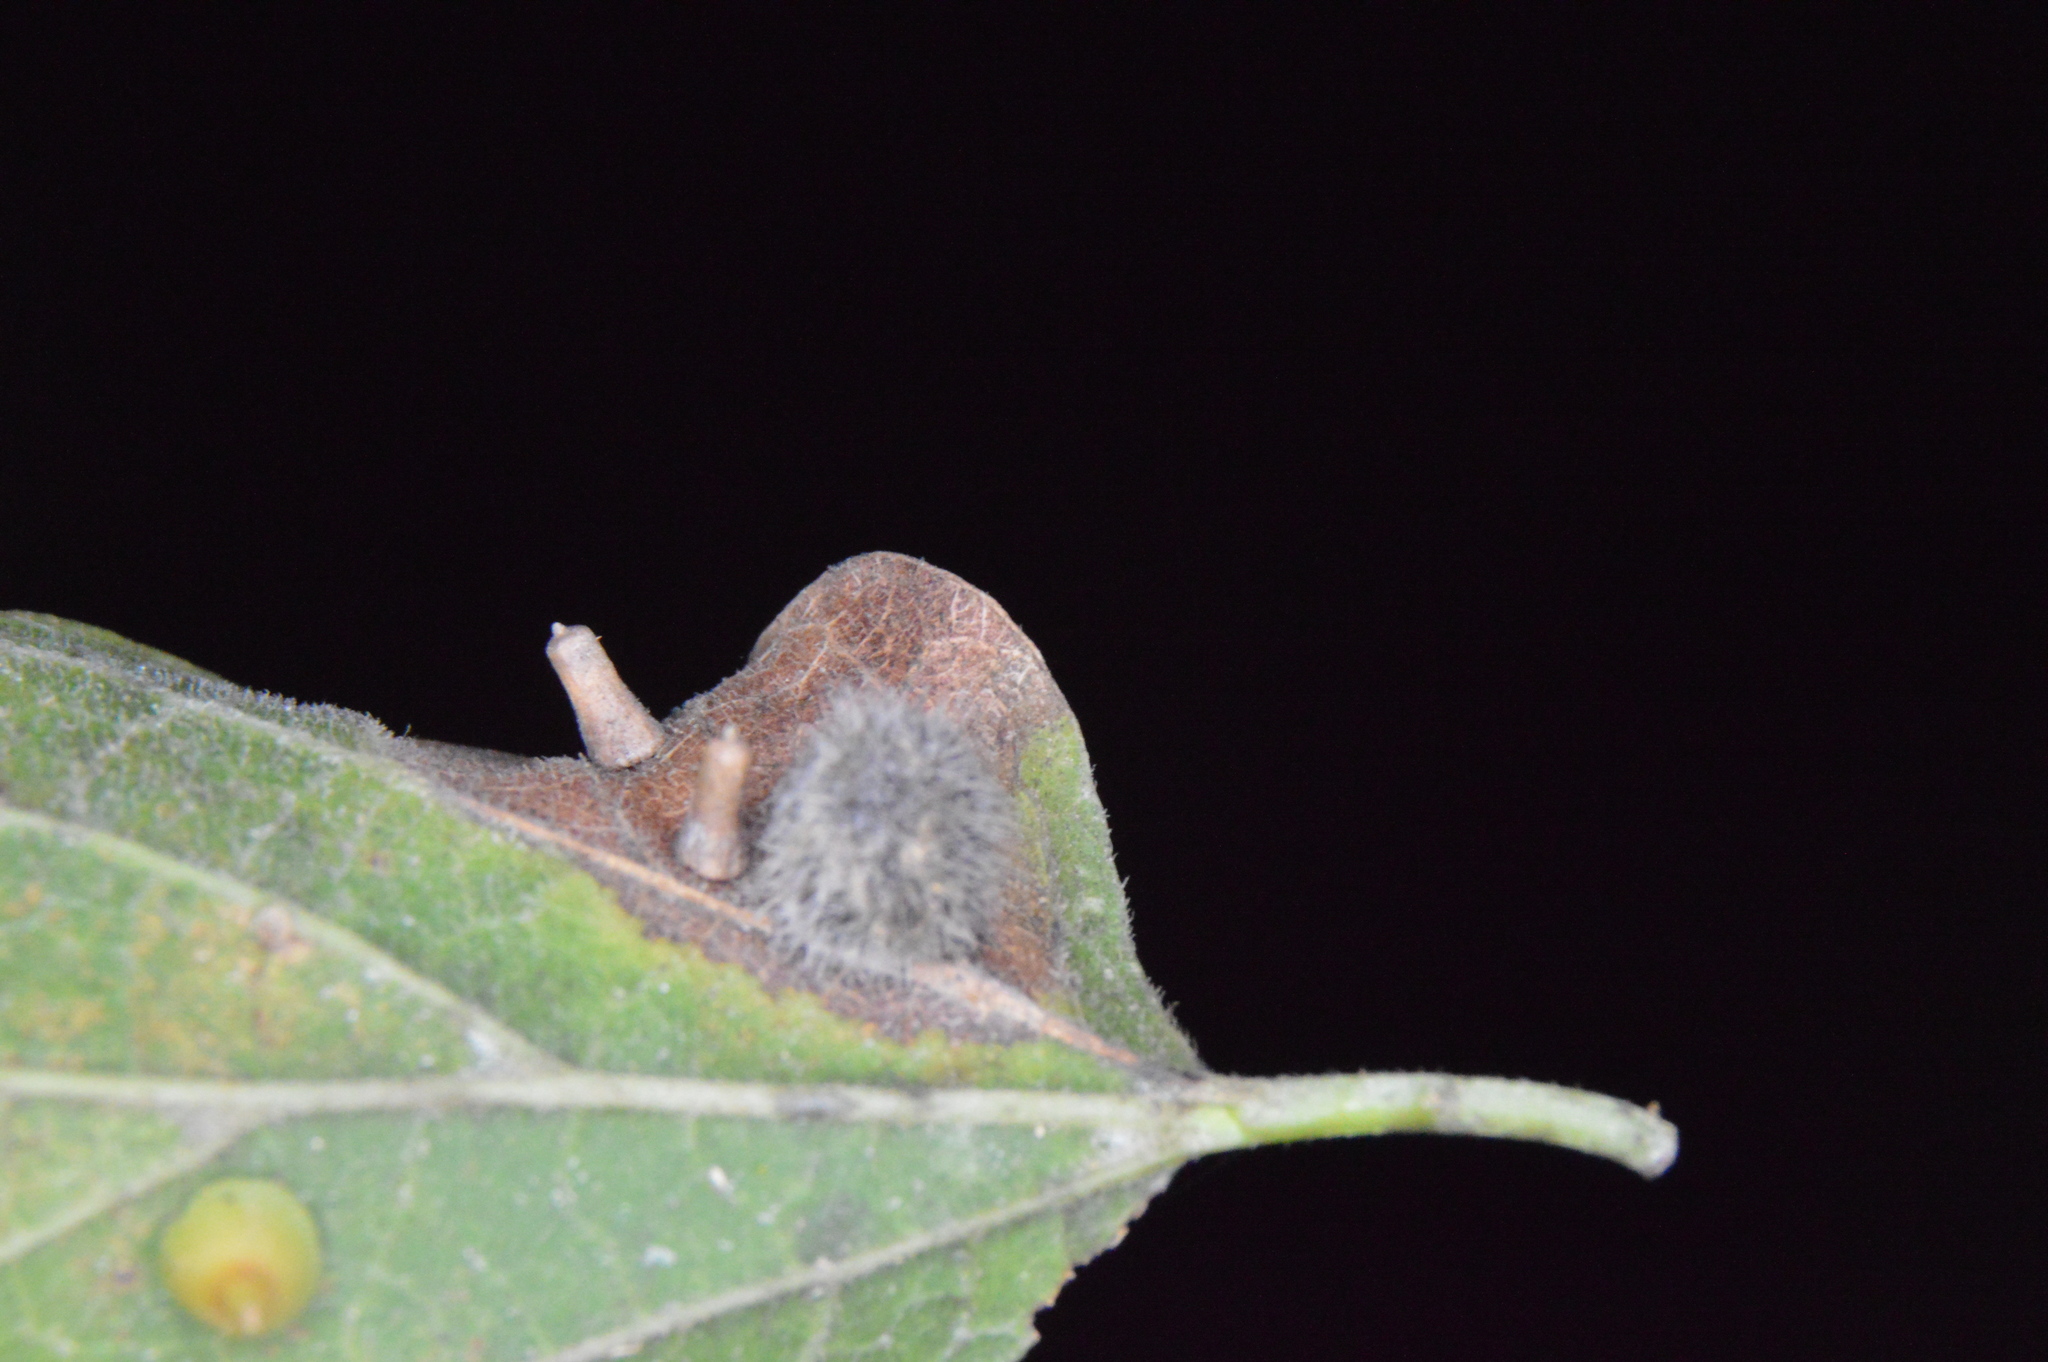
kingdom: Animalia
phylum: Arthropoda
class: Insecta
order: Diptera
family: Cecidomyiidae
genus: Celticecis
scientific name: Celticecis pubescens
